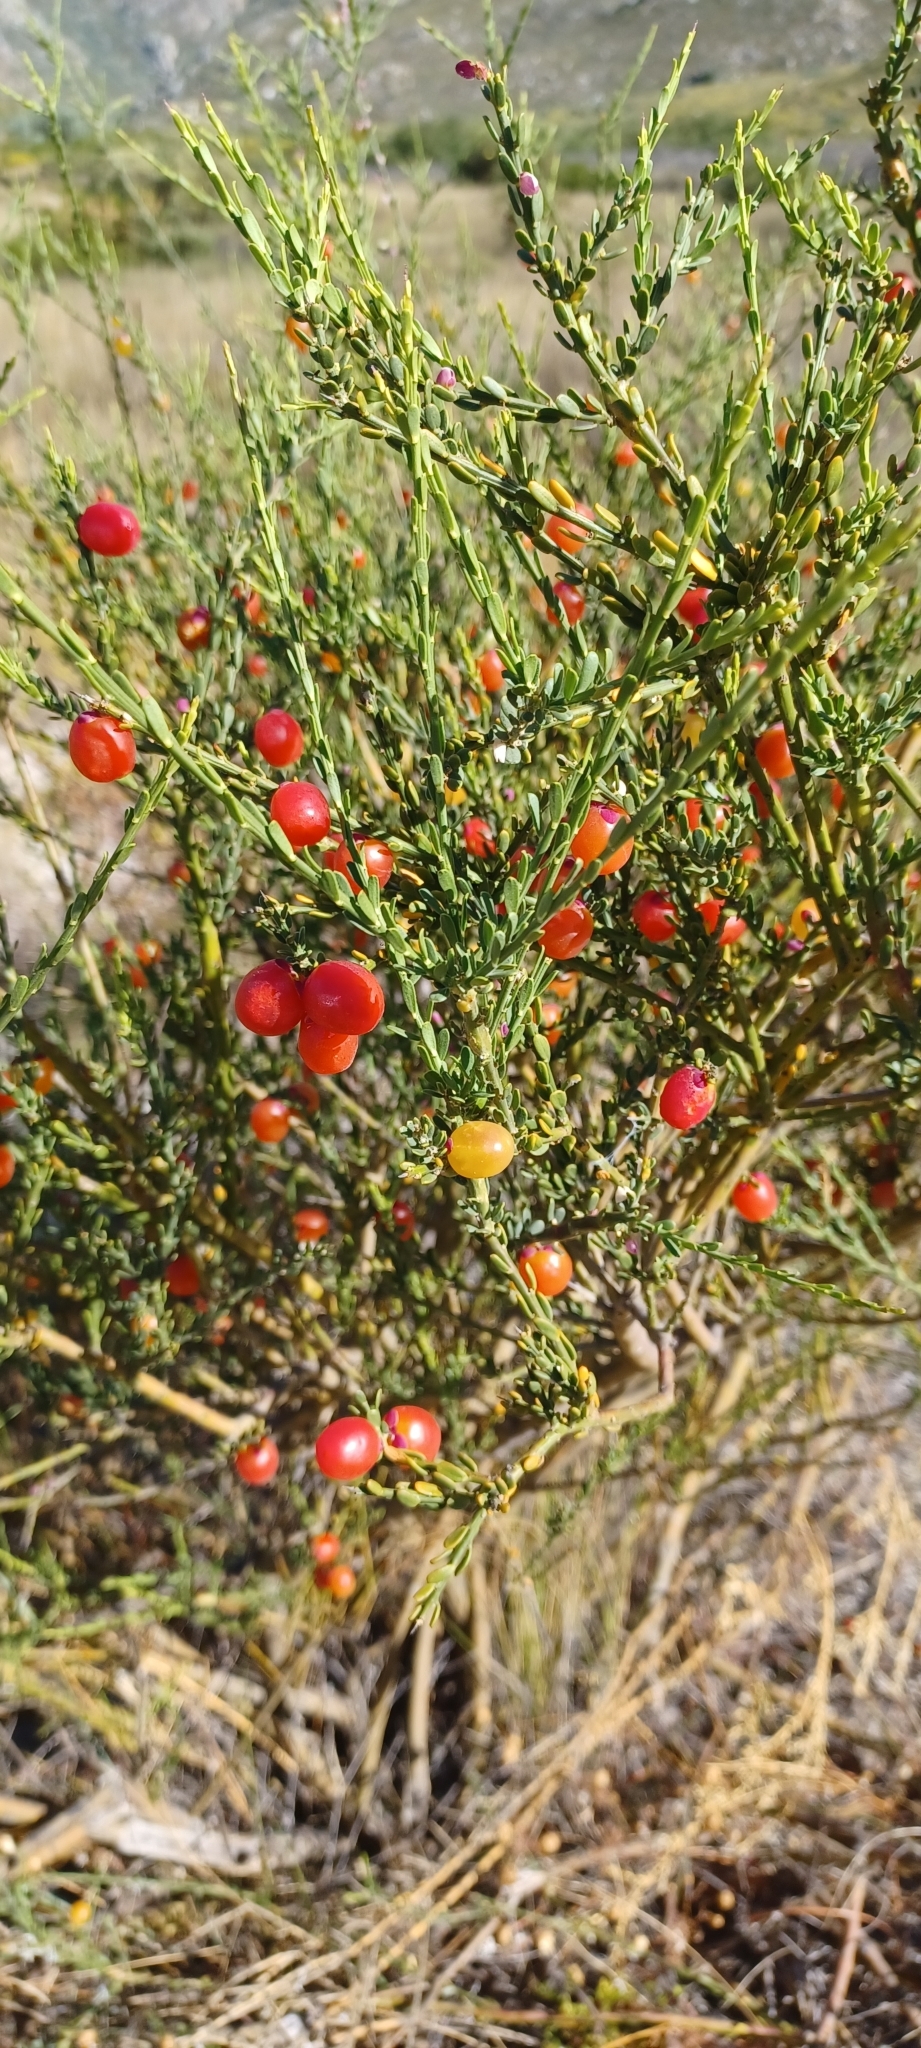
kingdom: Plantae
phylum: Tracheophyta
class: Magnoliopsida
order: Fabales
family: Polygalaceae
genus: Muraltia
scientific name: Muraltia spinosa
